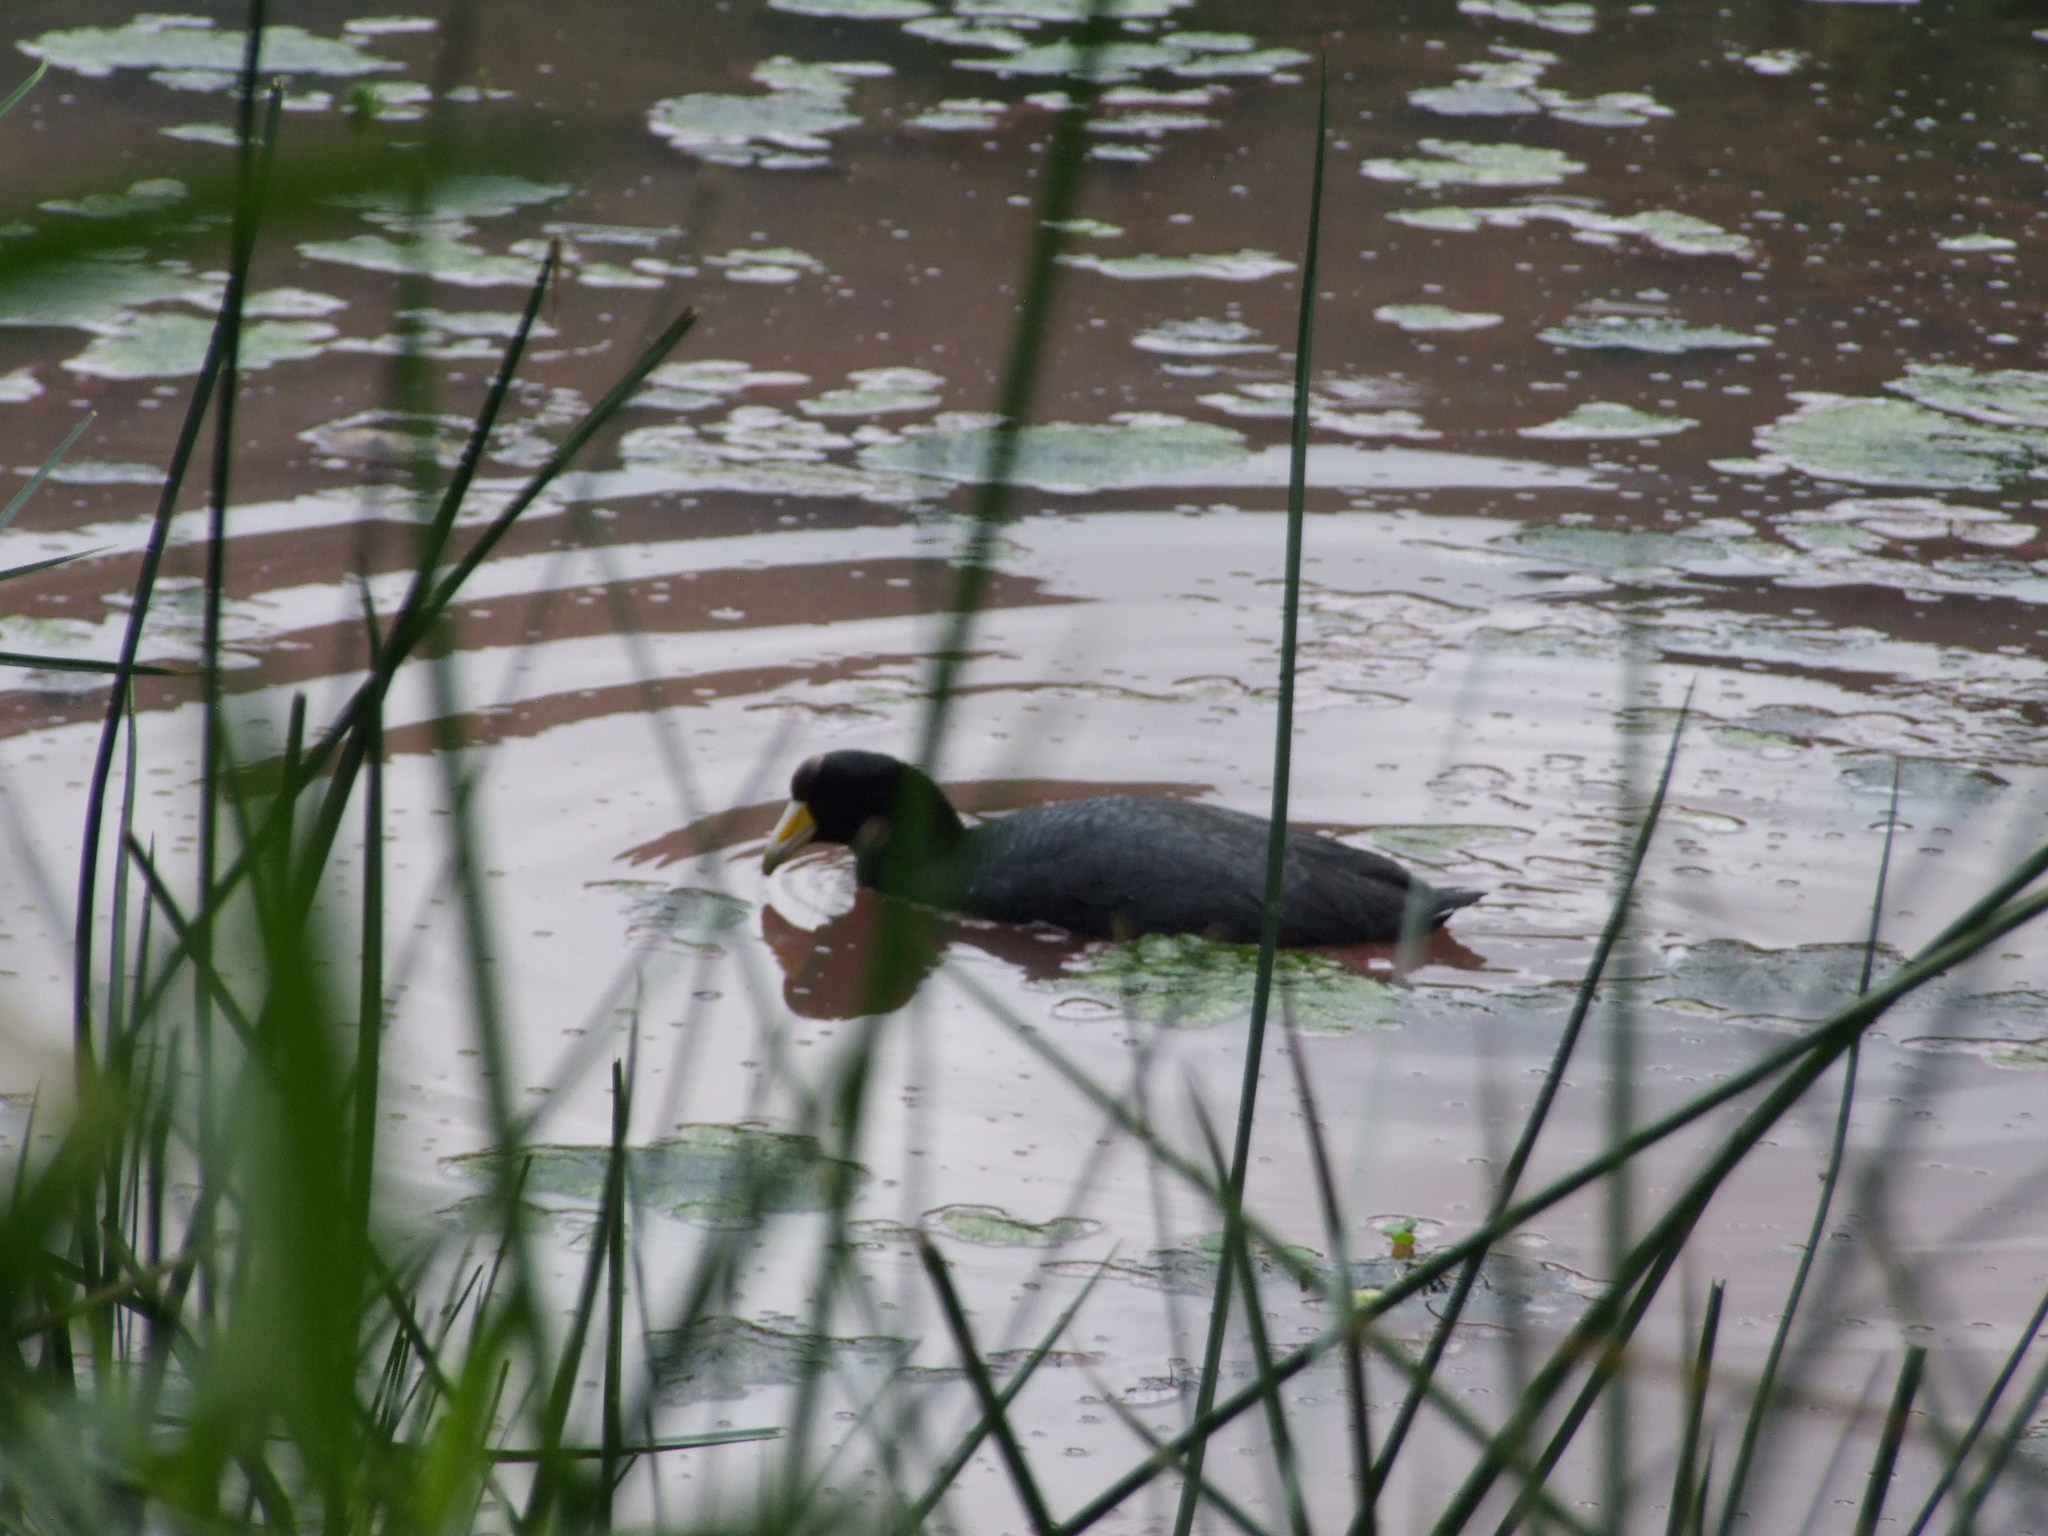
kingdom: Animalia
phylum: Chordata
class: Aves
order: Gruiformes
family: Rallidae
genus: Fulica
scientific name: Fulica ardesiaca
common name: Andean coot
